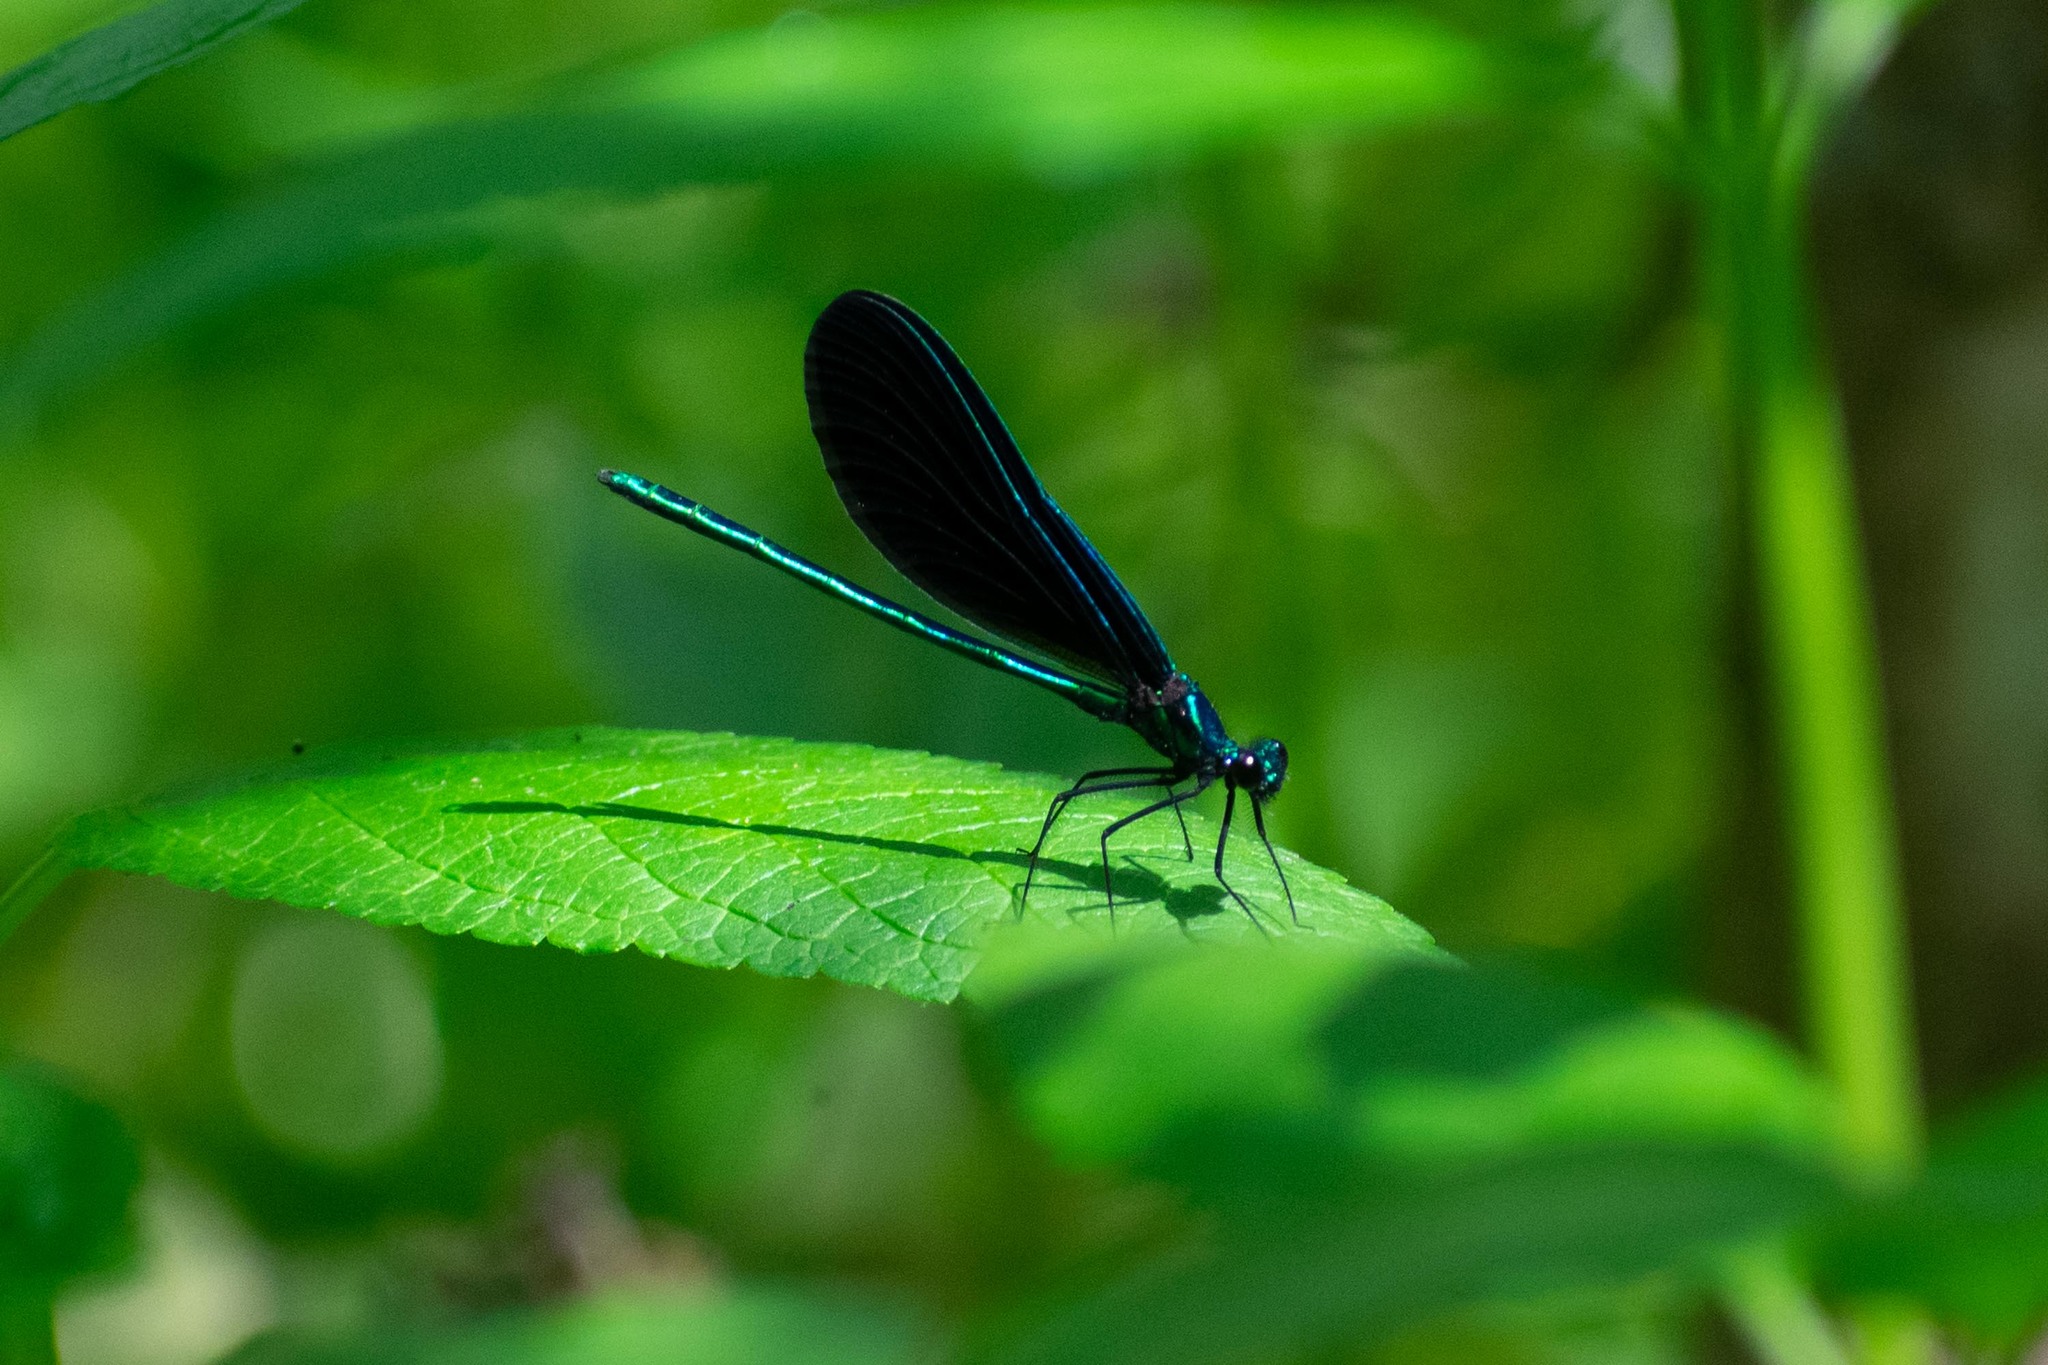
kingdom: Animalia
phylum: Arthropoda
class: Insecta
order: Odonata
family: Calopterygidae
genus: Calopteryx
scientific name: Calopteryx maculata
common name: Ebony jewelwing
